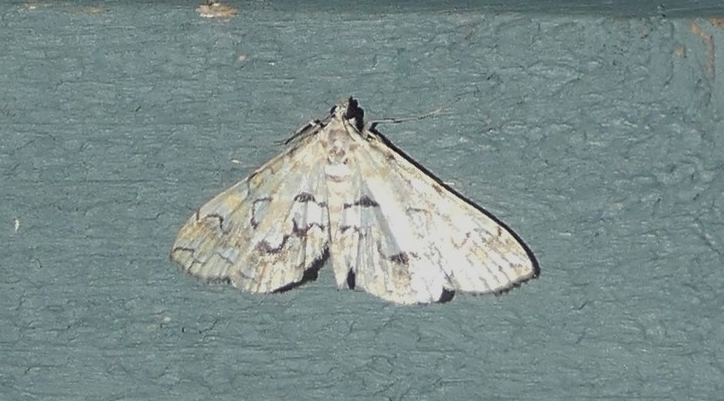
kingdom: Animalia
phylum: Arthropoda
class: Insecta
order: Lepidoptera
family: Crambidae
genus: Elophila
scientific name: Elophila icciusalis
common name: Pondside pyralid moth
